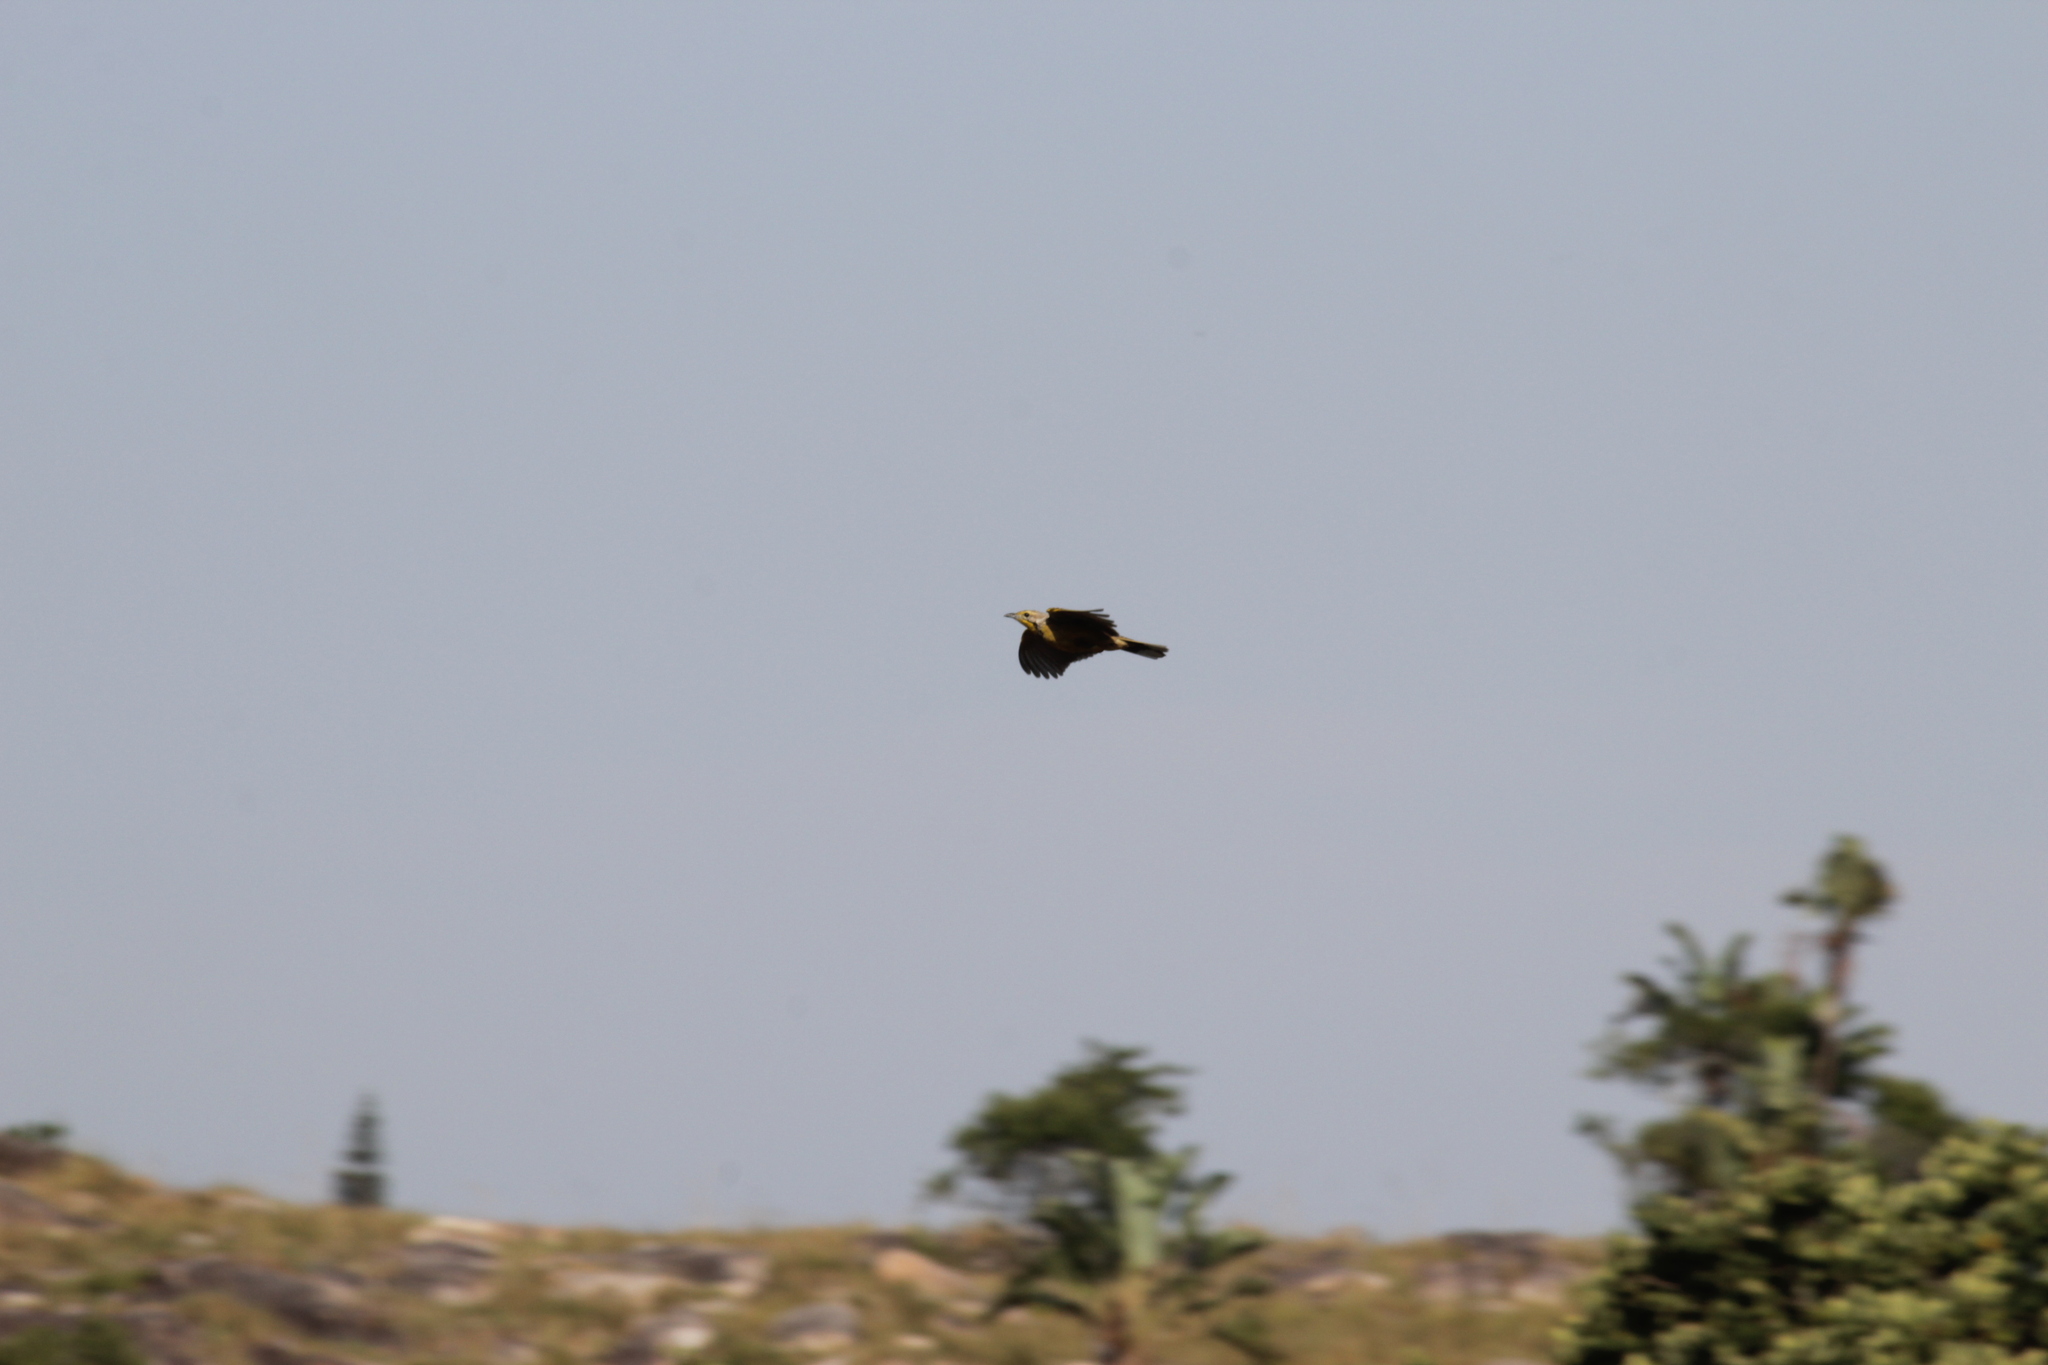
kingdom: Animalia
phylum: Chordata
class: Aves
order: Passeriformes
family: Motacillidae
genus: Macronyx
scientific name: Macronyx croceus
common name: Yellow-throated longclaw
